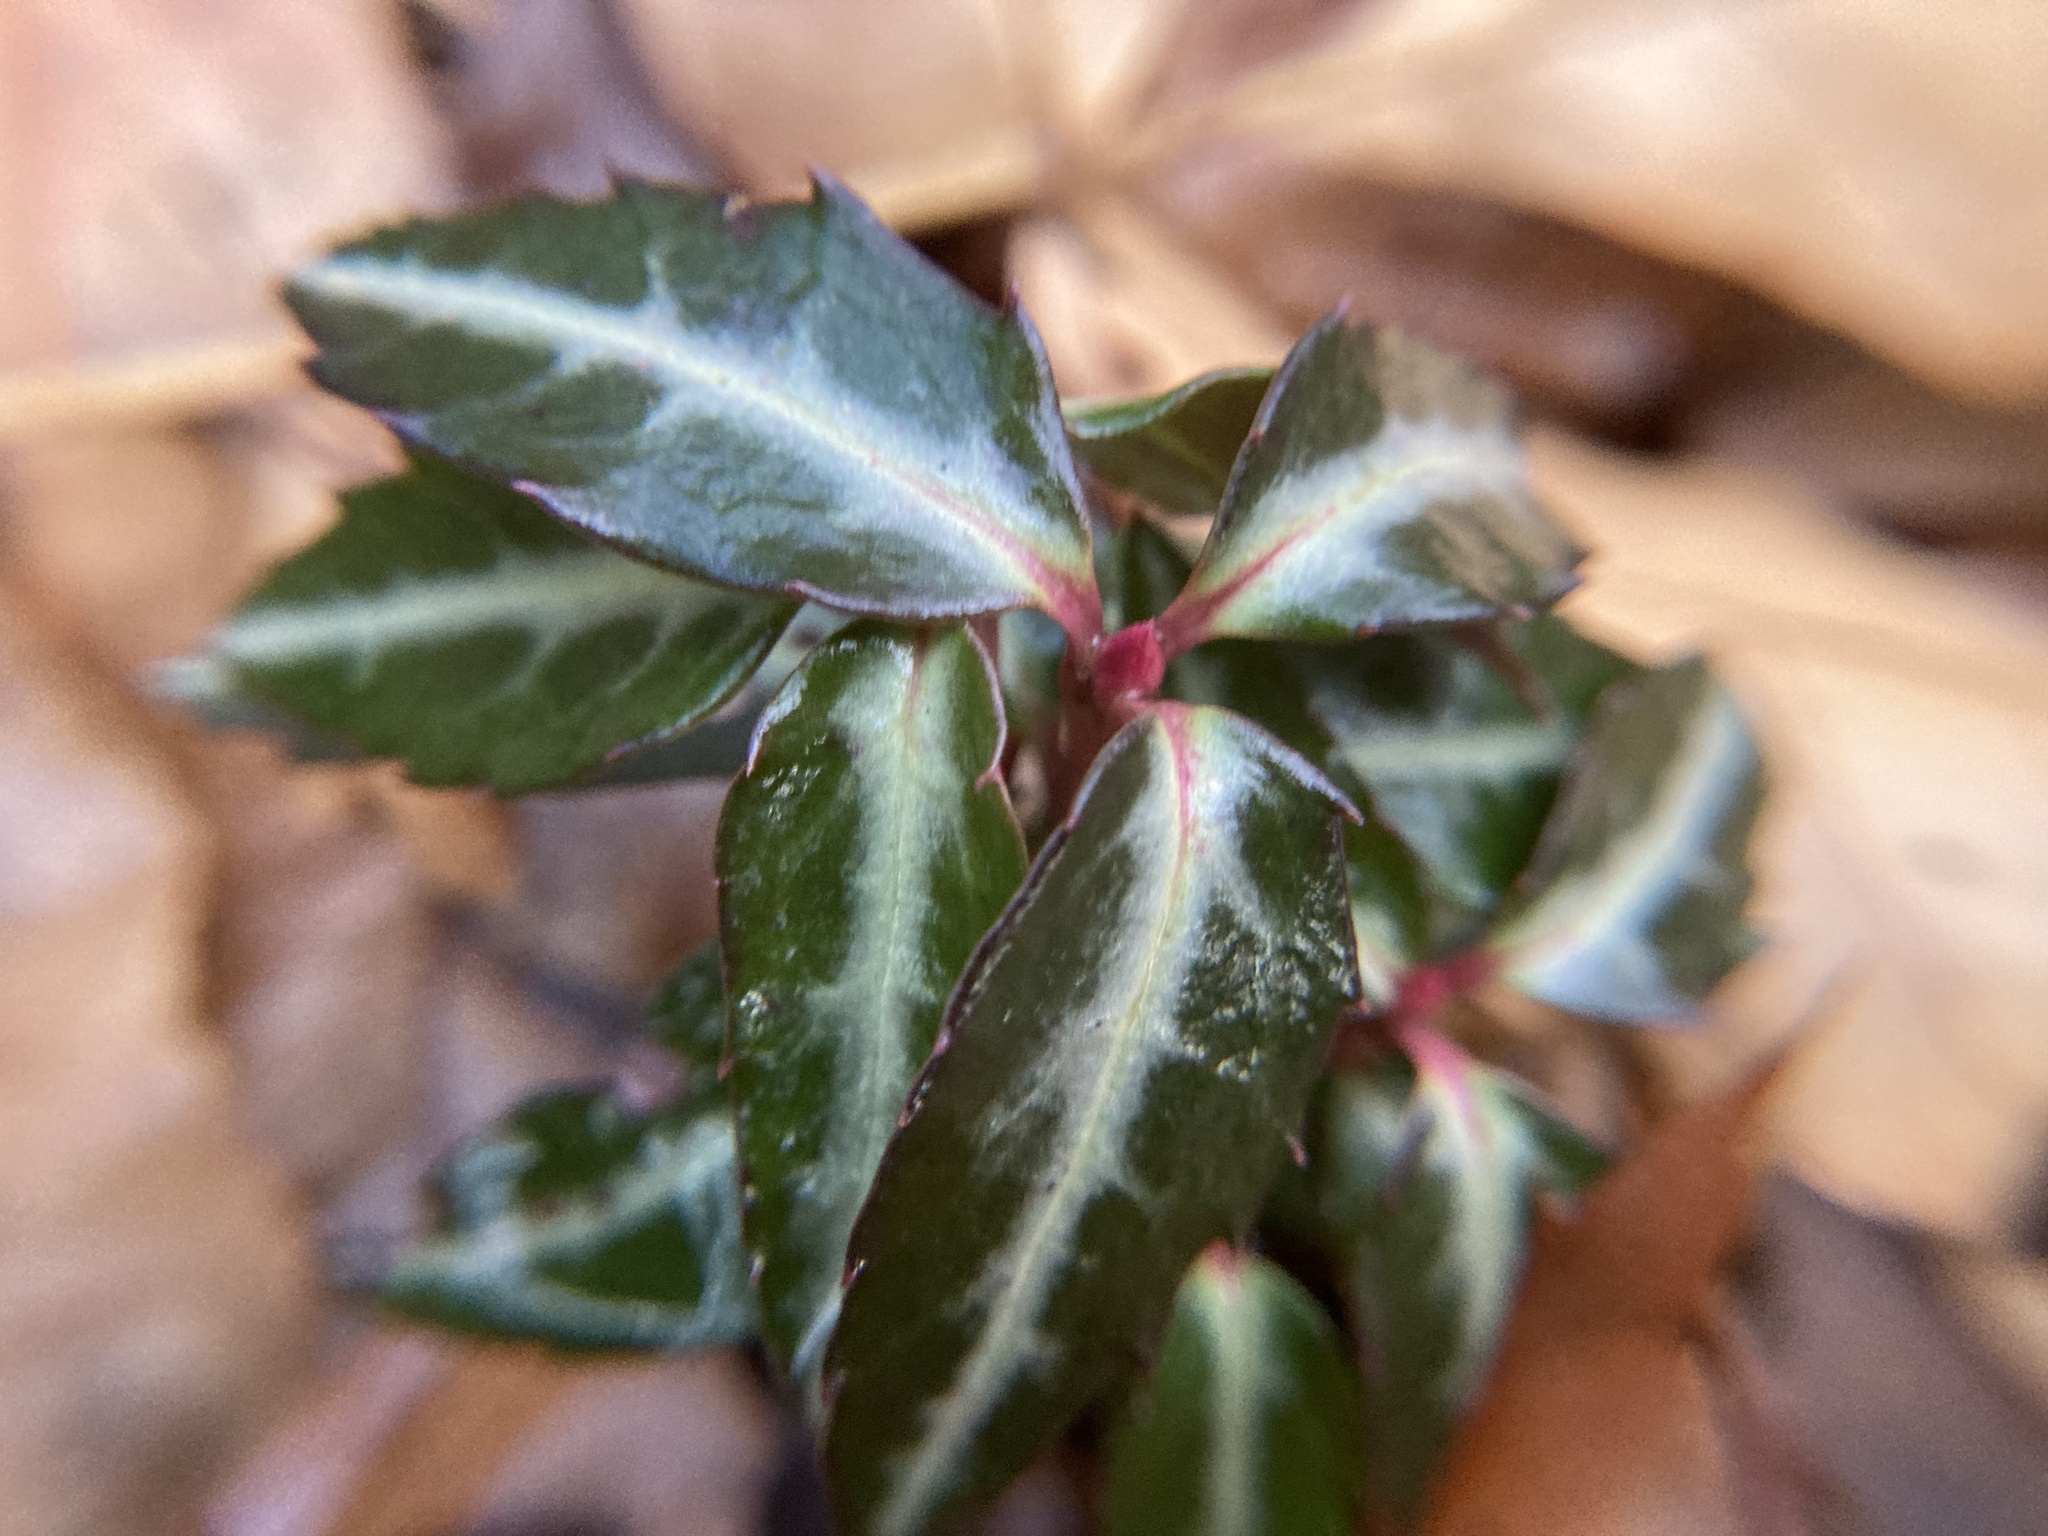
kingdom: Plantae
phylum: Tracheophyta
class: Magnoliopsida
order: Ericales
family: Ericaceae
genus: Chimaphila
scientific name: Chimaphila maculata
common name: Spotted pipsissewa
